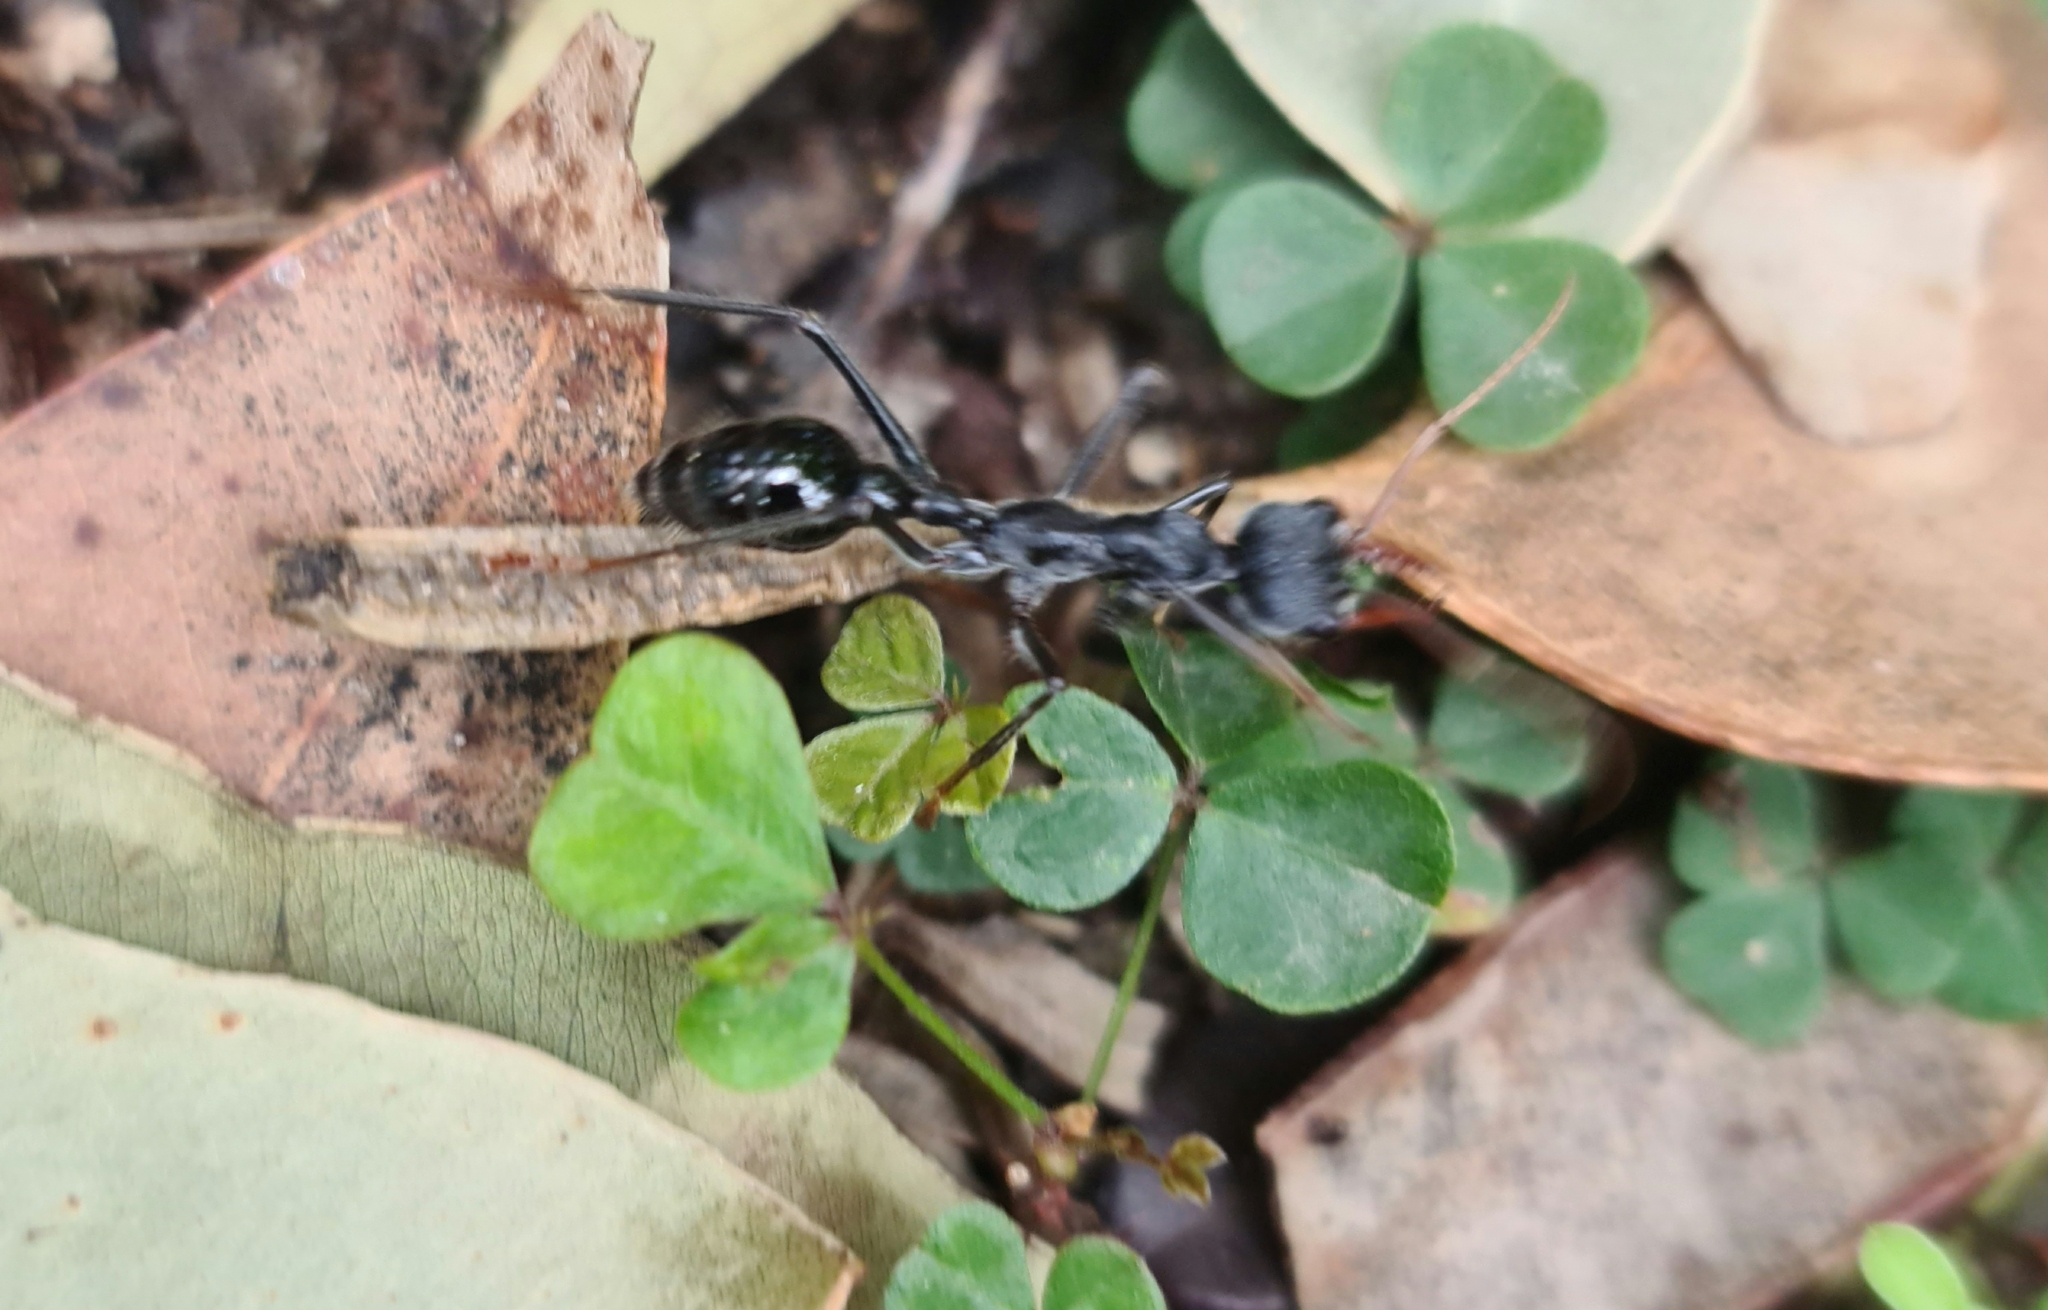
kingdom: Animalia
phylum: Arthropoda
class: Insecta
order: Hymenoptera
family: Formicidae
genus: Myrmecia
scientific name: Myrmecia simillima
